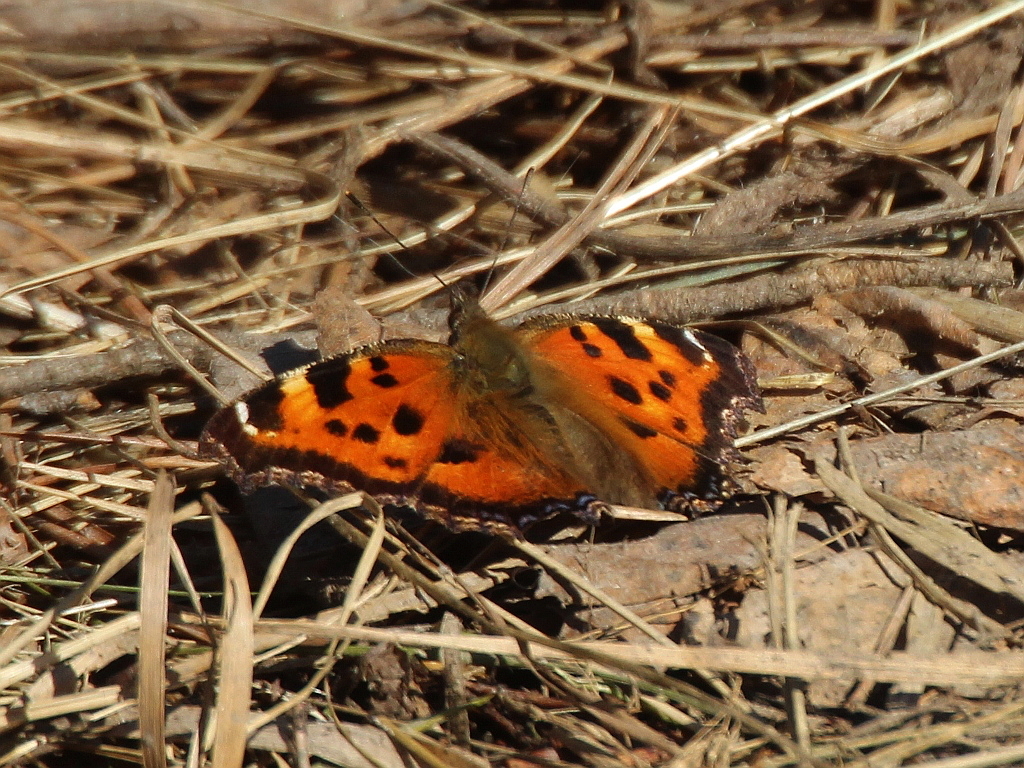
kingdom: Animalia
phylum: Arthropoda
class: Insecta
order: Lepidoptera
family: Nymphalidae
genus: Nymphalis
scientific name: Nymphalis xanthomelas
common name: Scarce tortoiseshell
